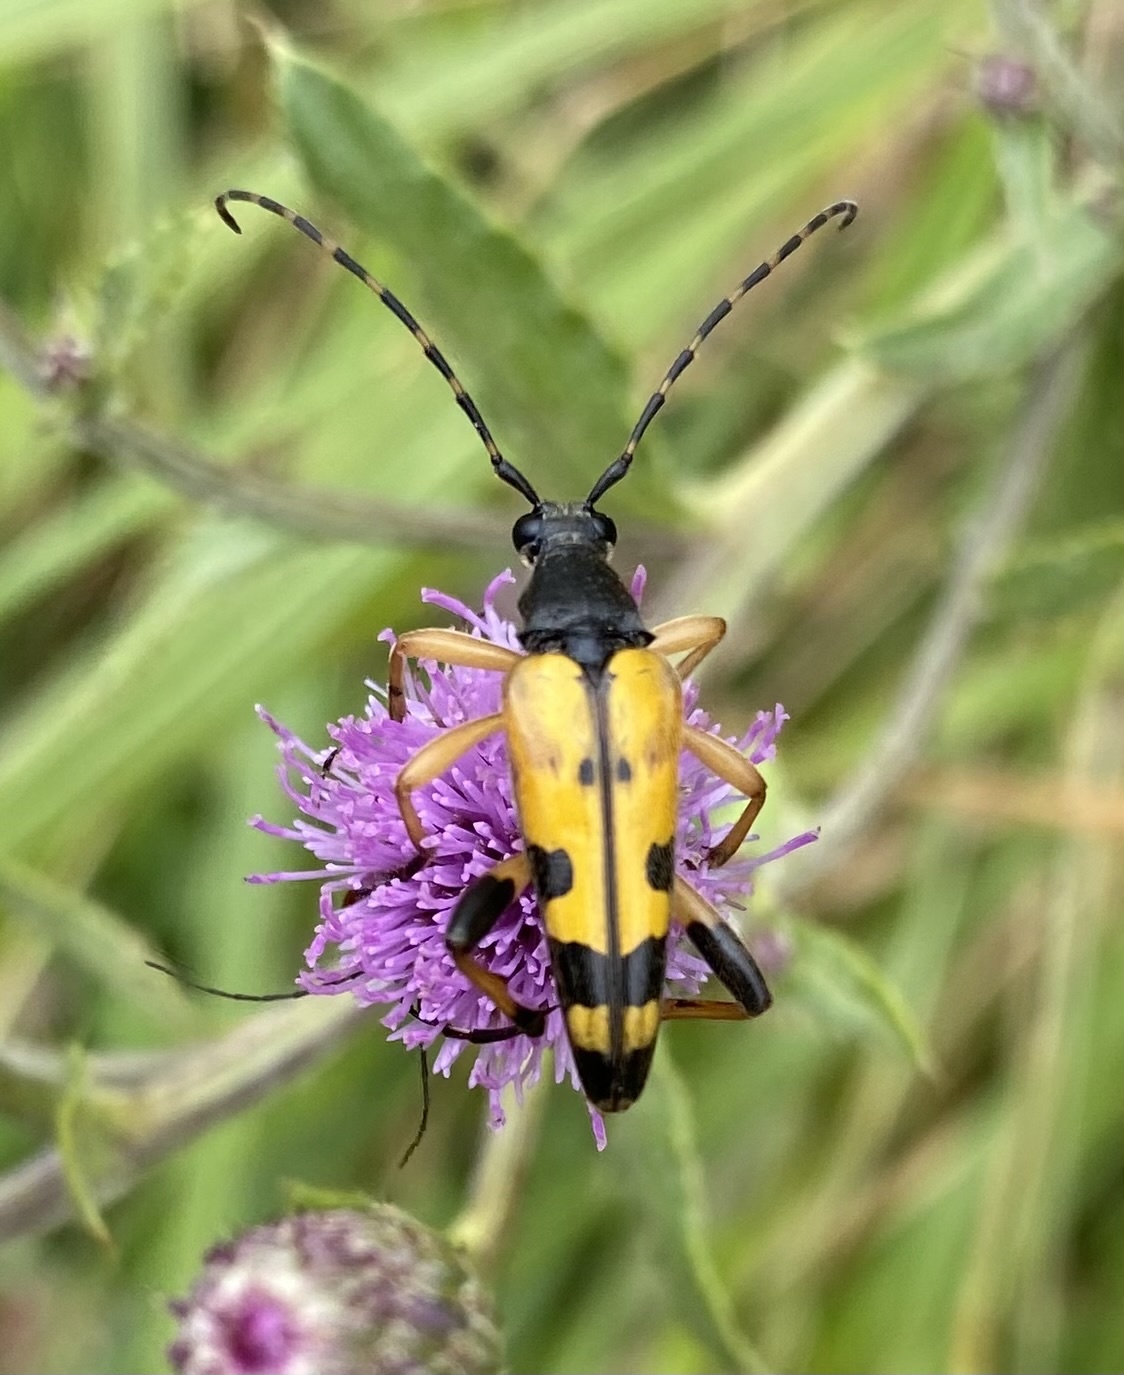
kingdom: Animalia
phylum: Arthropoda
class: Insecta
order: Coleoptera
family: Cerambycidae
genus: Rutpela
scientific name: Rutpela maculata
